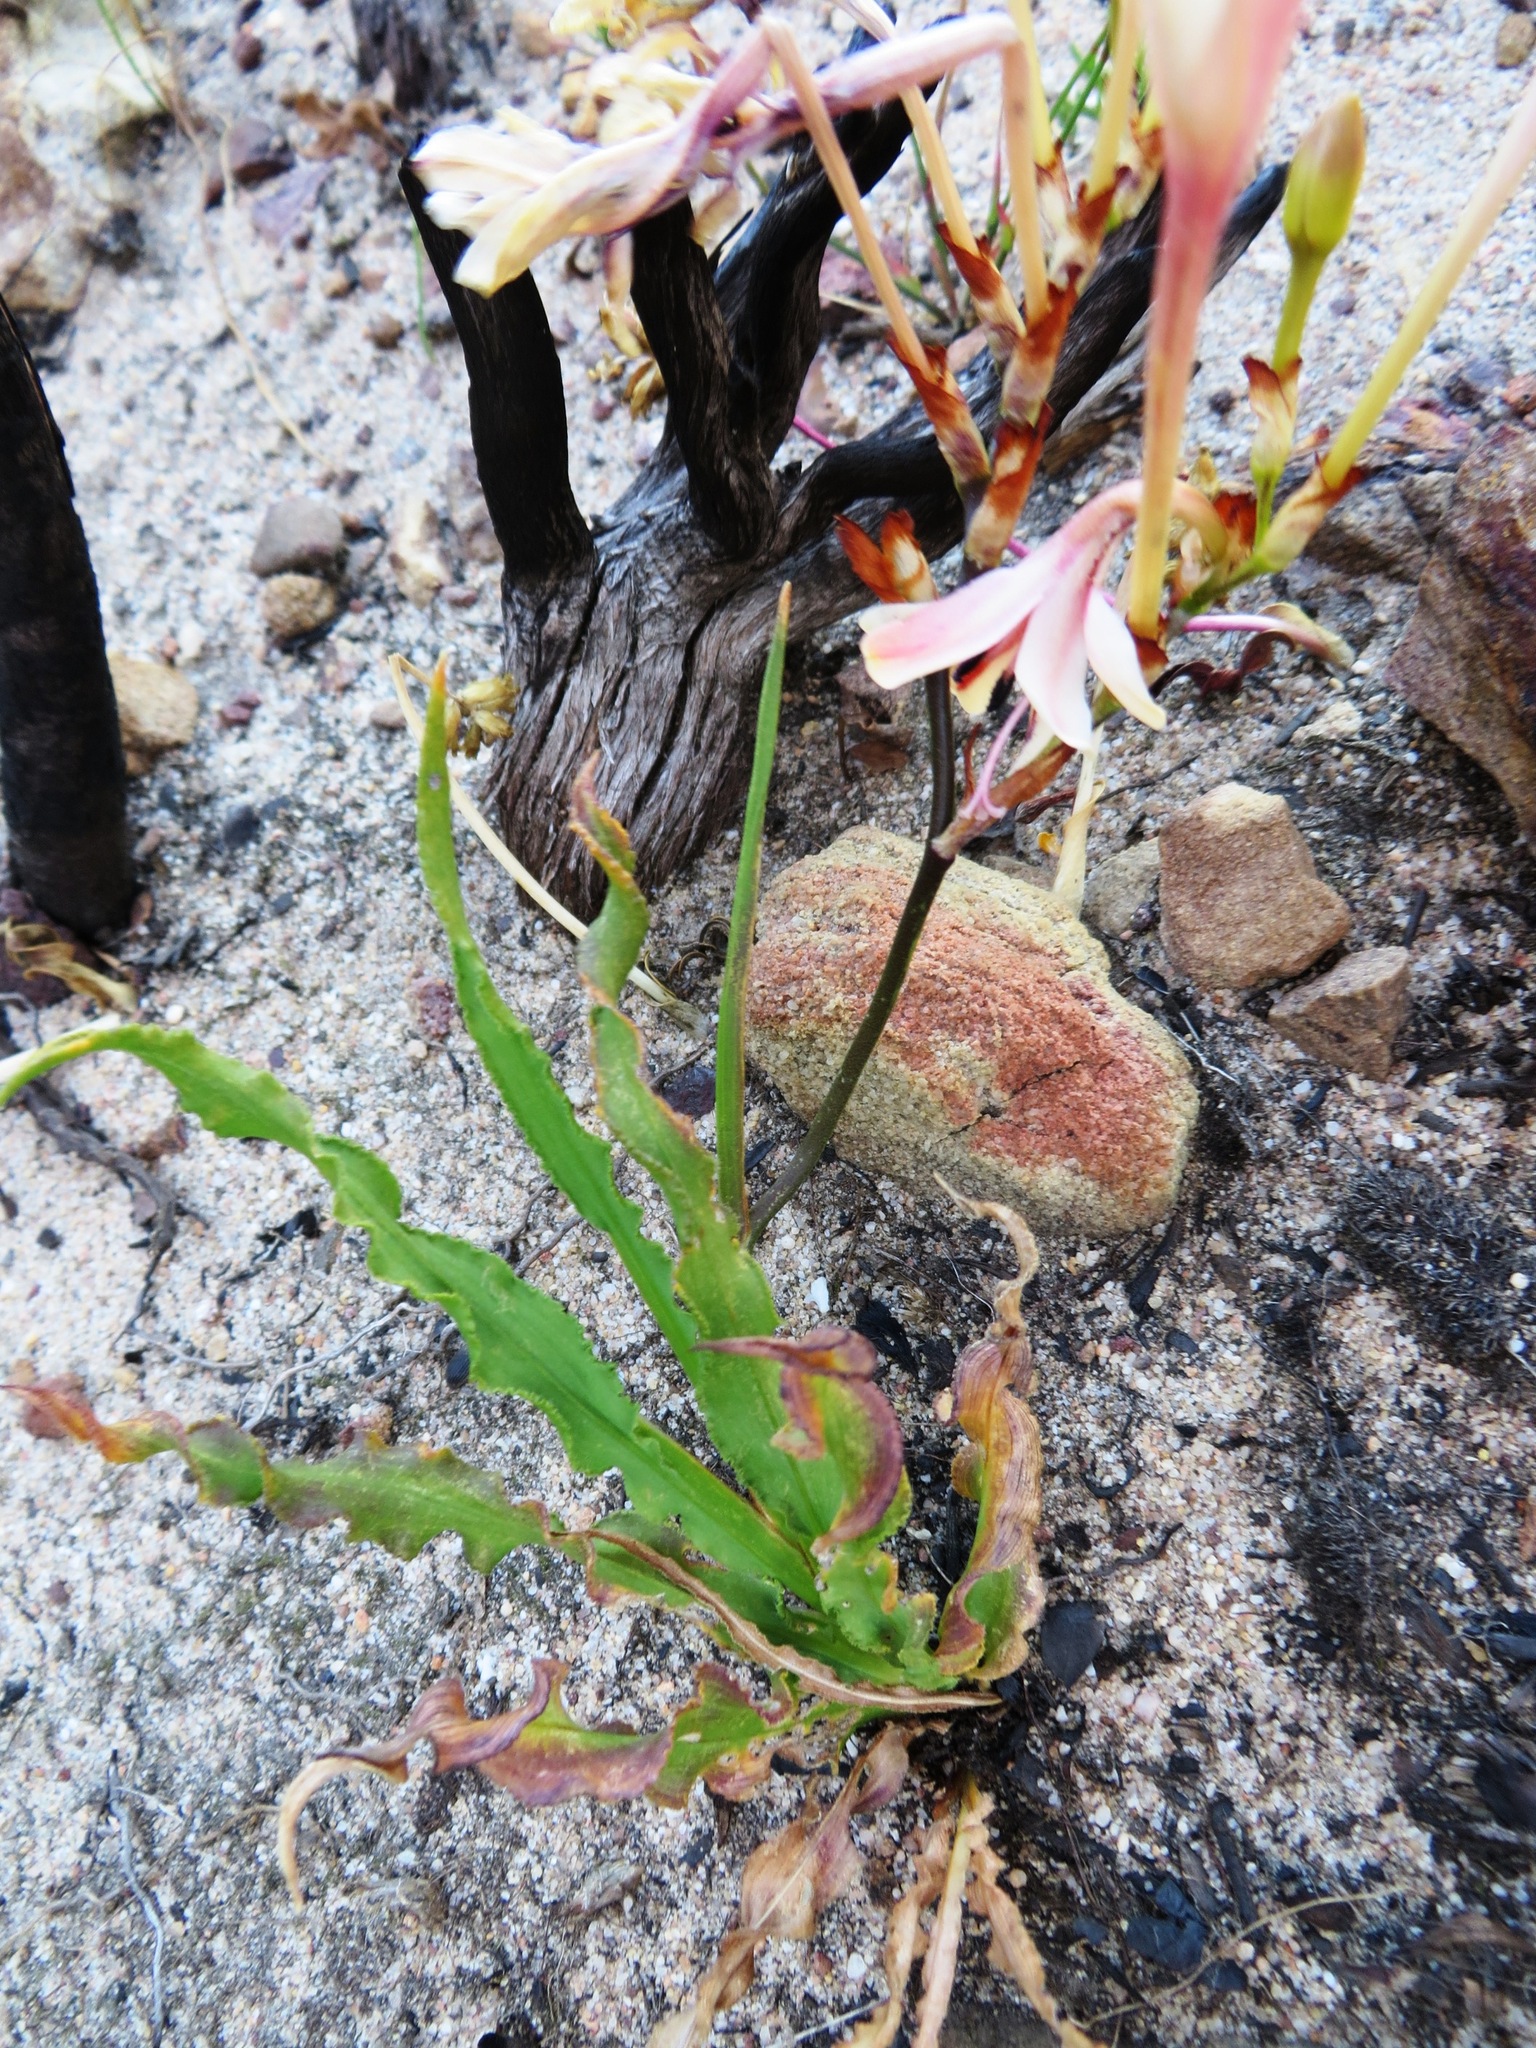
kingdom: Plantae
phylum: Tracheophyta
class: Liliopsida
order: Asparagales
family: Iridaceae
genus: Tritonia
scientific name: Tritonia undulata
